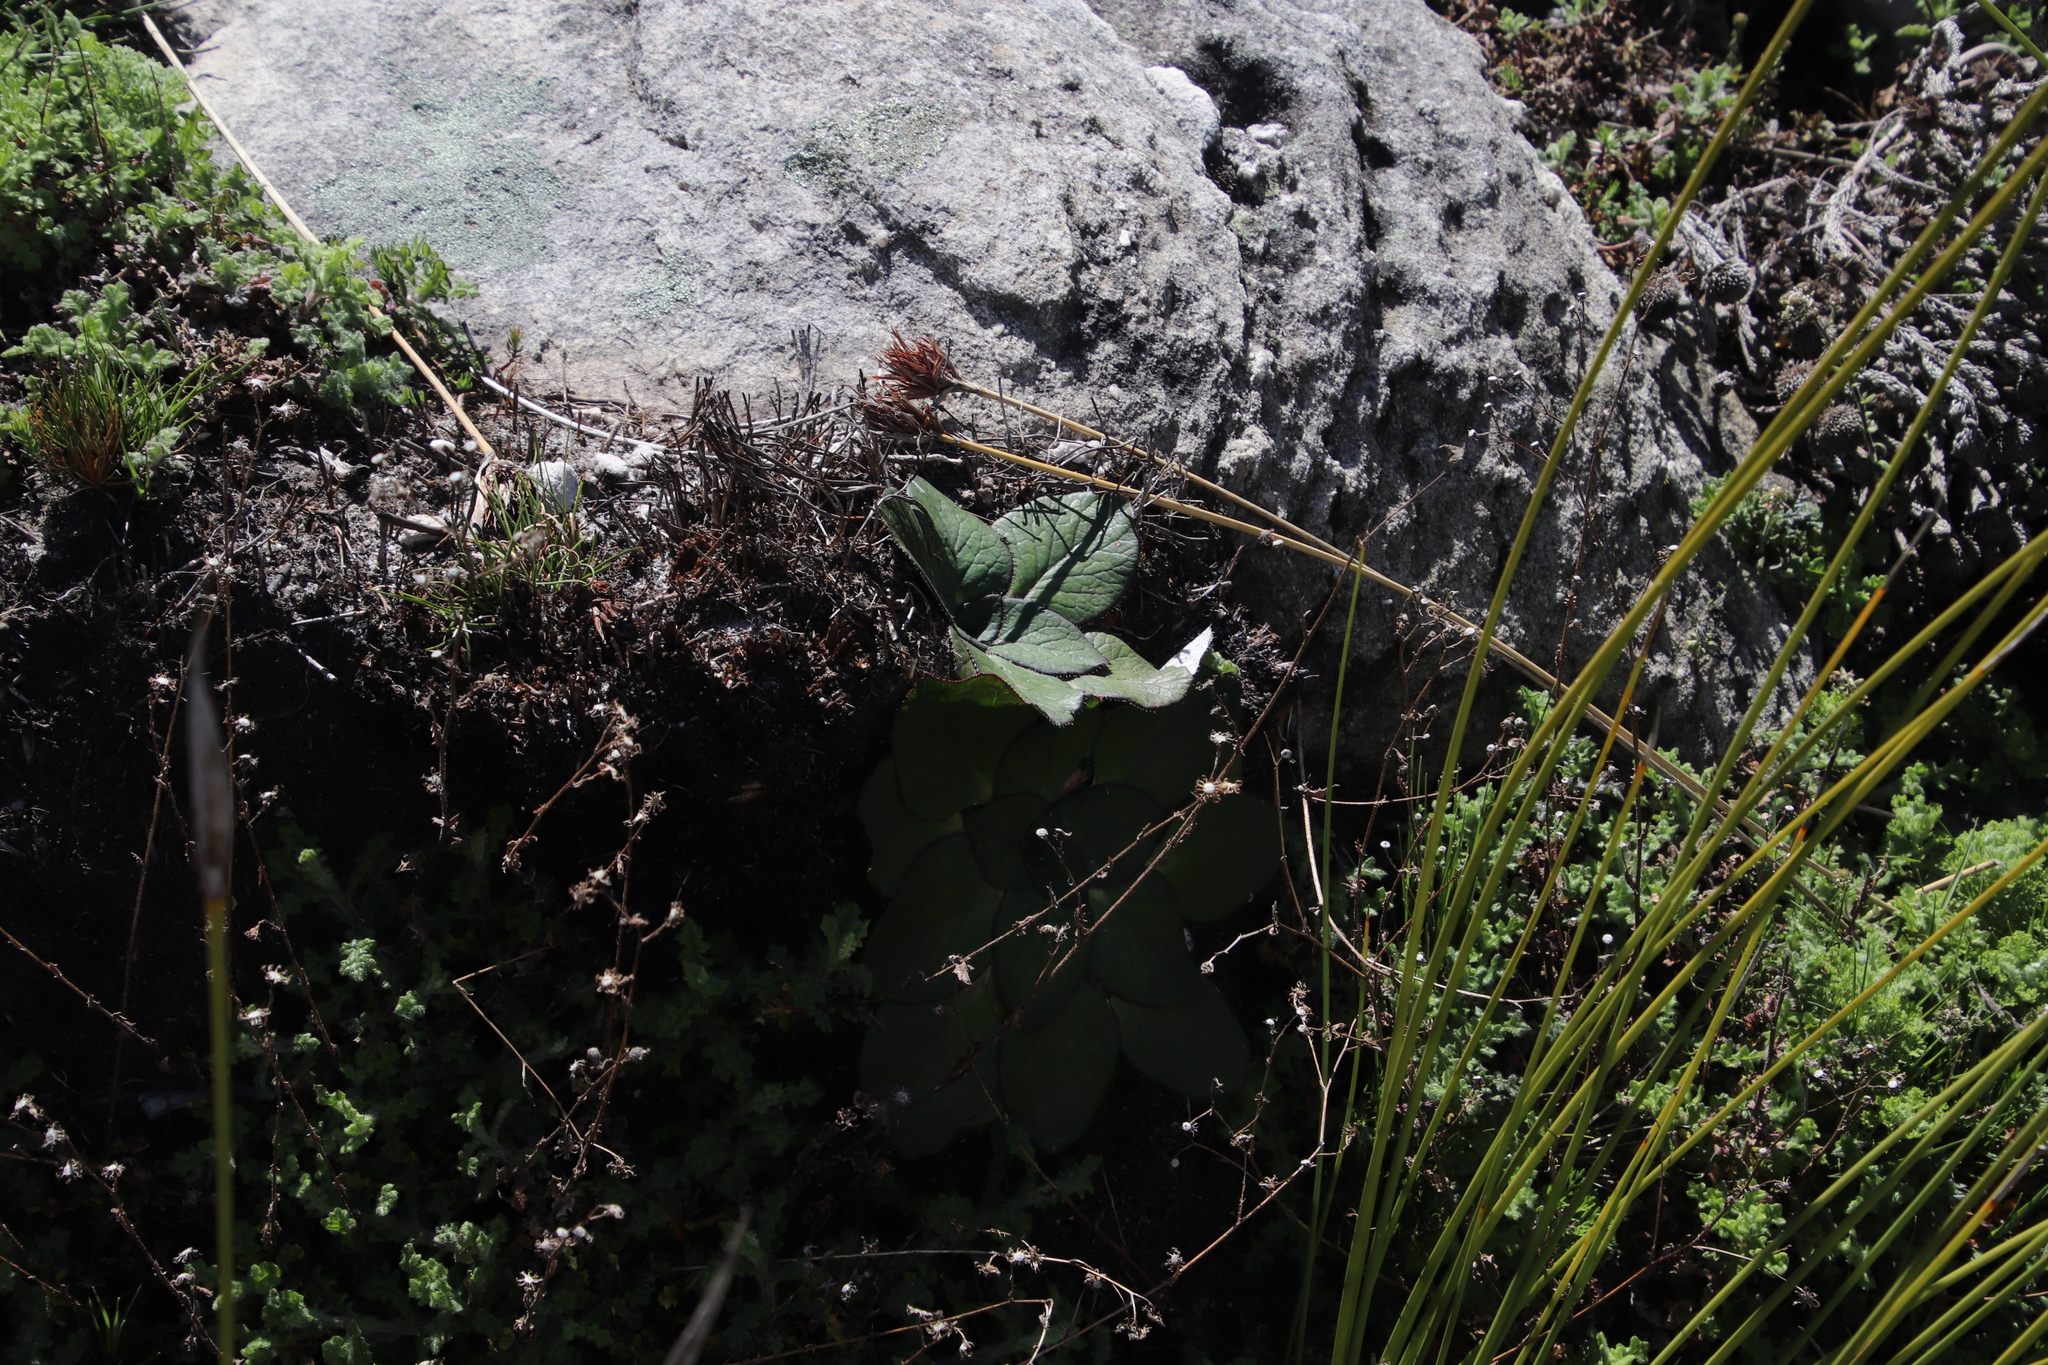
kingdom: Plantae
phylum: Tracheophyta
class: Magnoliopsida
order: Apiales
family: Apiaceae
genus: Hermas
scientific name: Hermas ciliata
